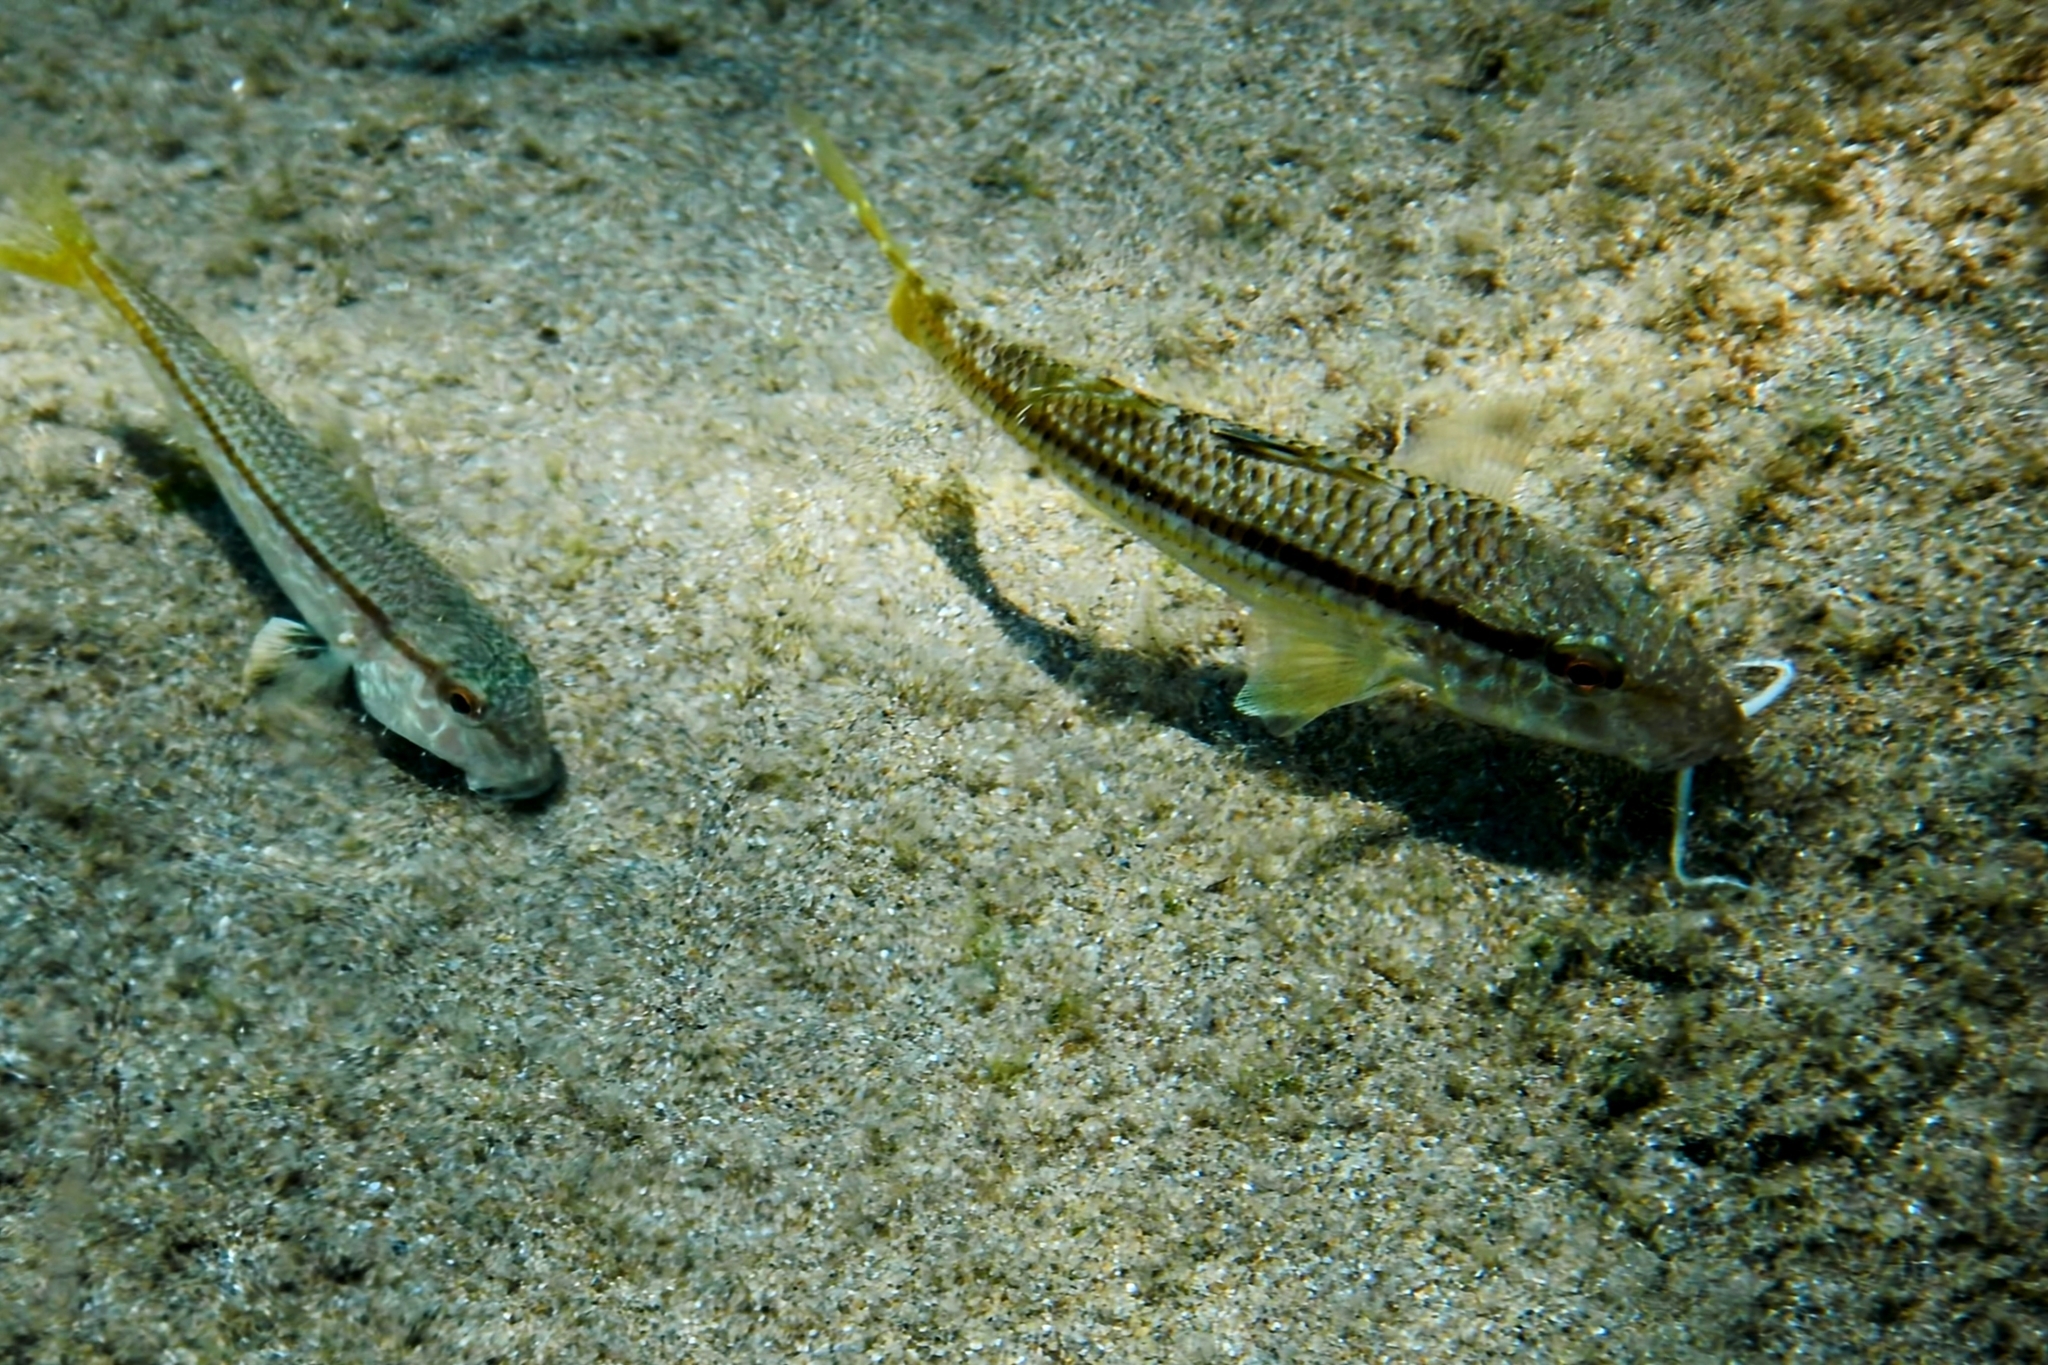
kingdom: Animalia
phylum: Chordata
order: Perciformes
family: Mullidae
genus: Mullus
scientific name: Mullus surmuletus
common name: Red mullet
